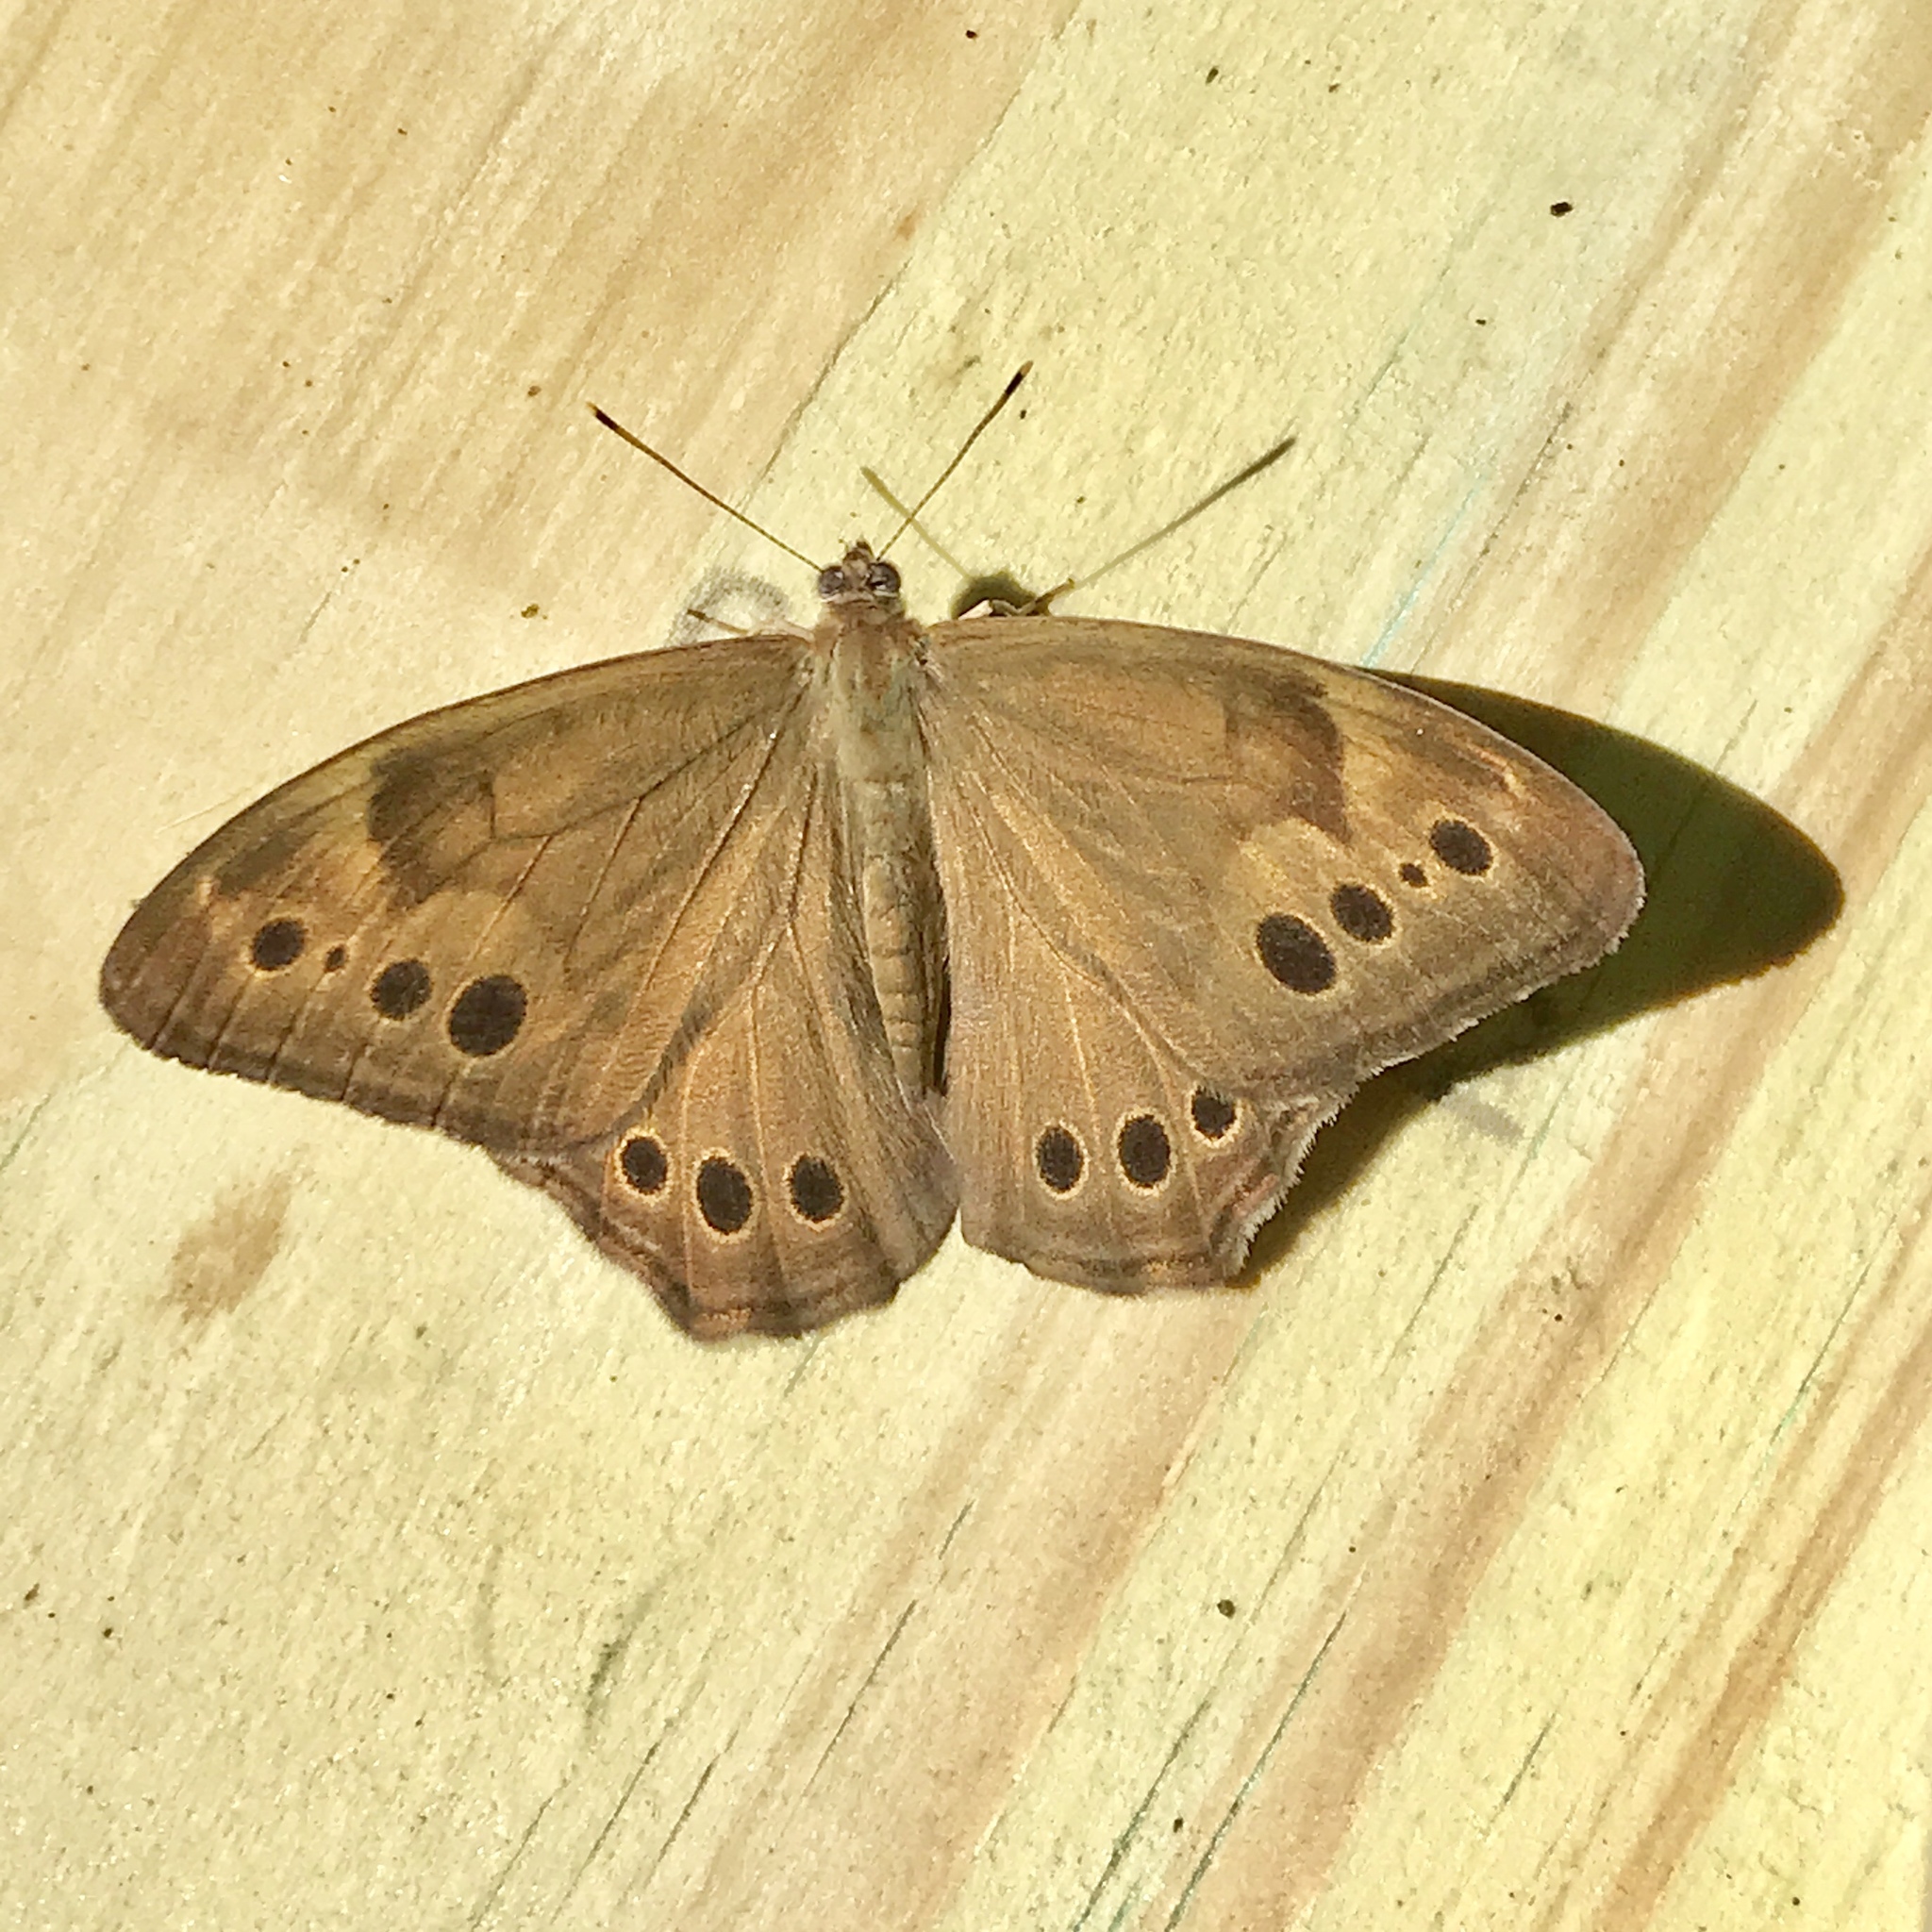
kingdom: Animalia
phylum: Arthropoda
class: Insecta
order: Lepidoptera
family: Nymphalidae
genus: Lethe
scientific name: Lethe anthedon
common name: Northern pearly-eye
